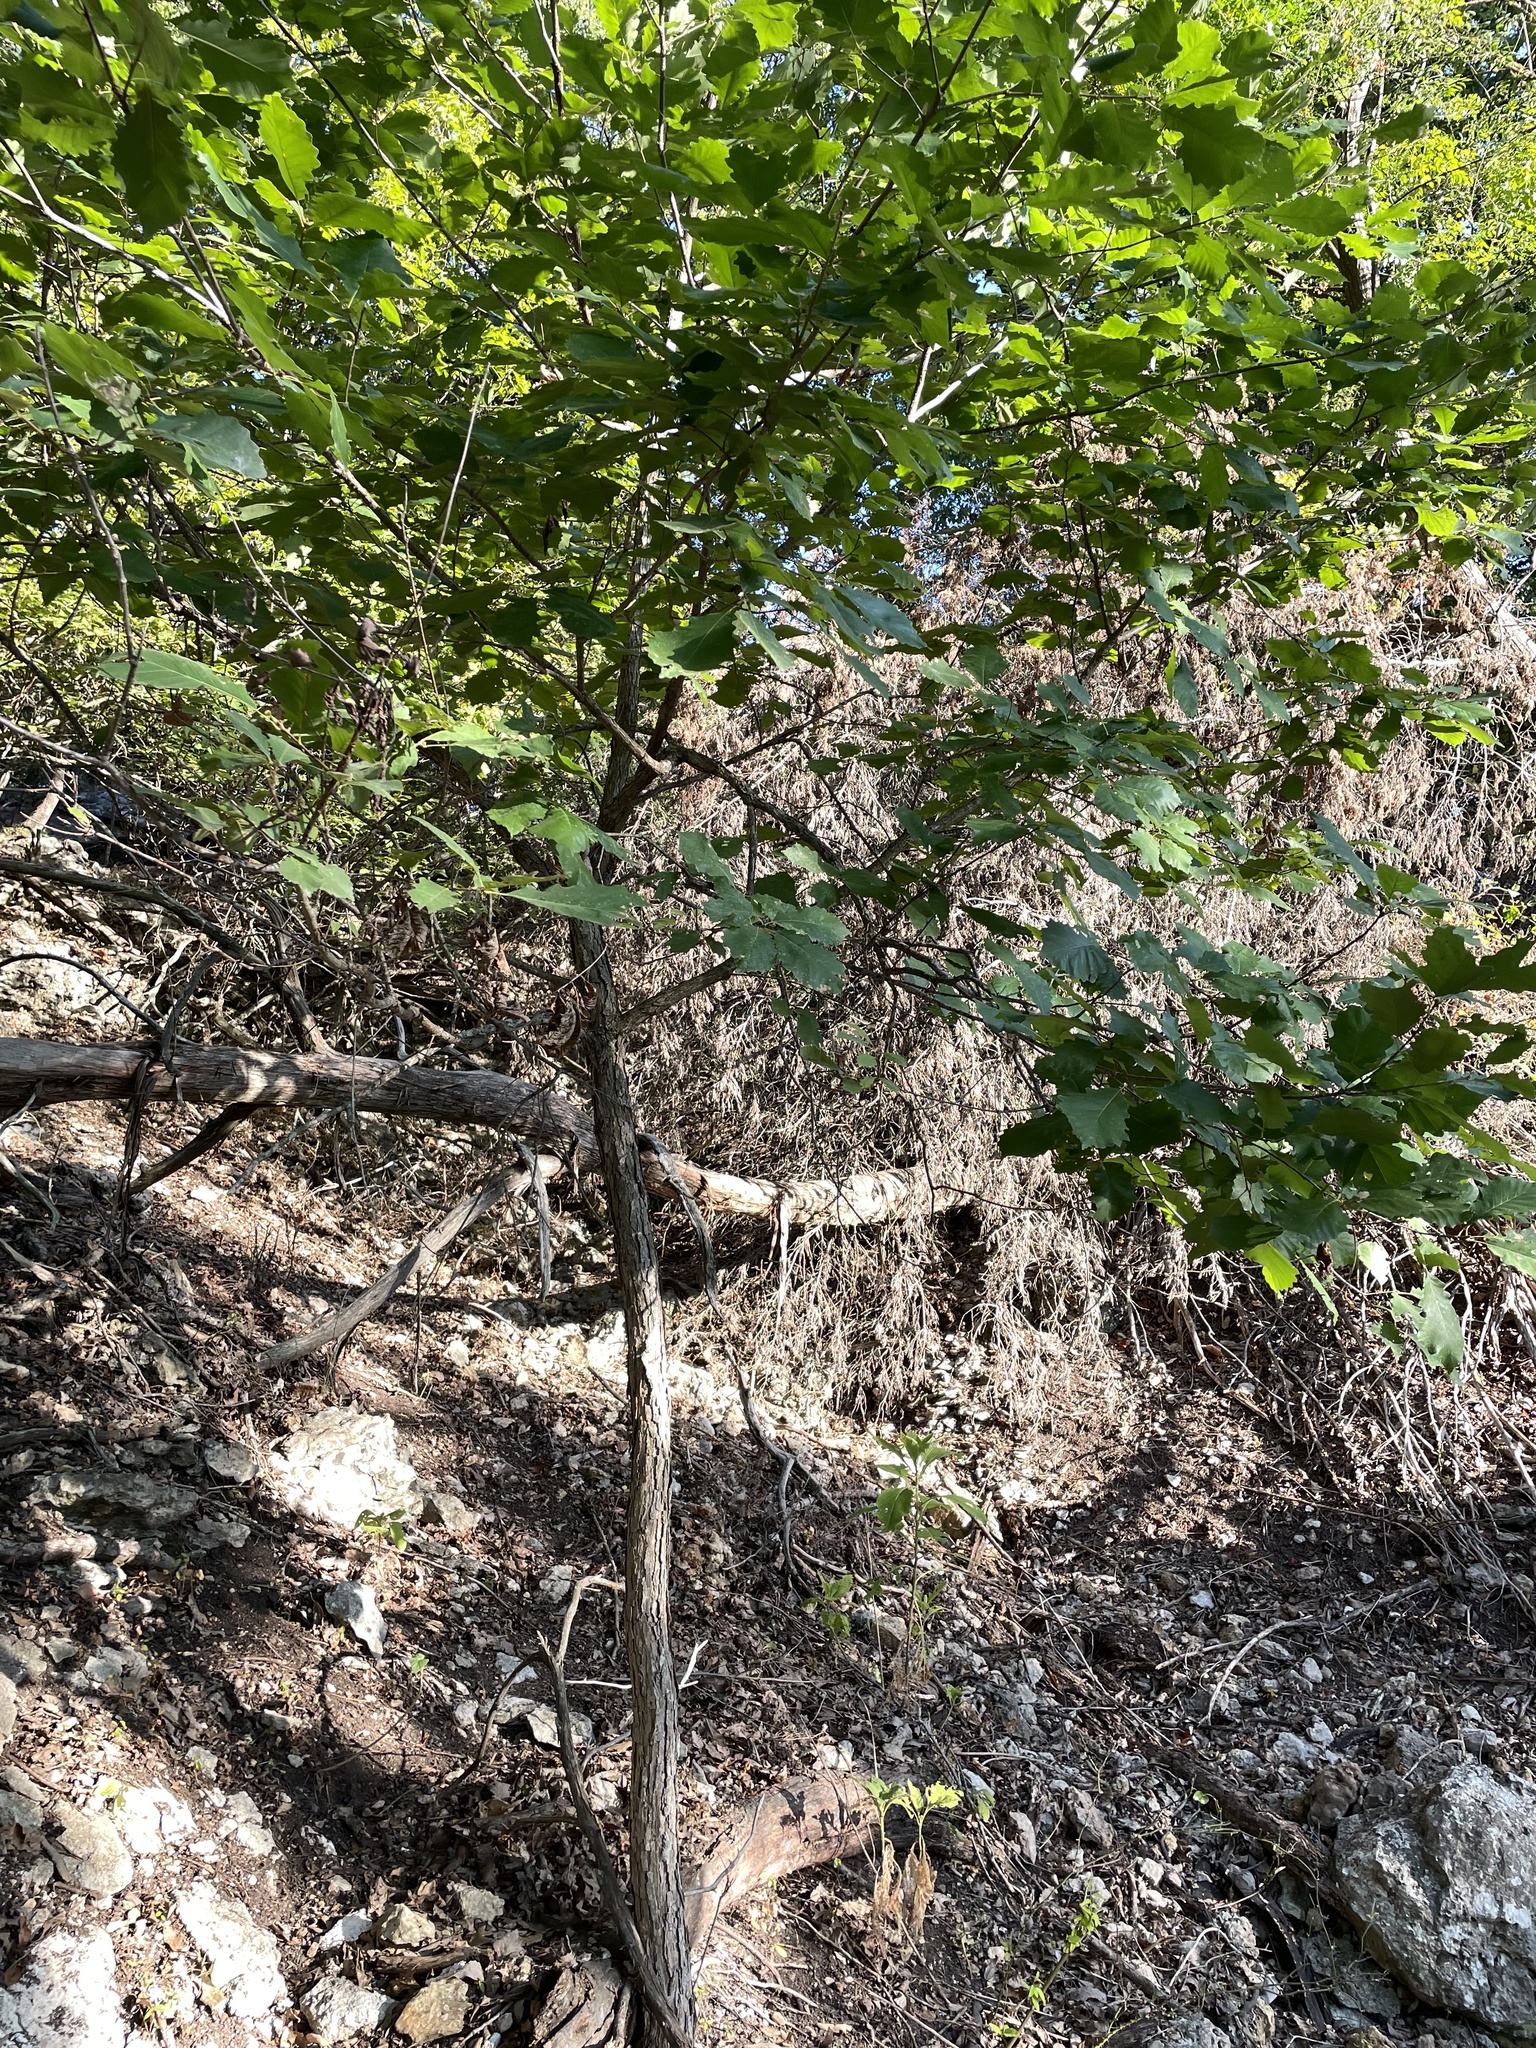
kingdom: Plantae
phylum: Tracheophyta
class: Magnoliopsida
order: Fagales
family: Fagaceae
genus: Quercus
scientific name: Quercus muehlenbergii
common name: Chinkapin oak
